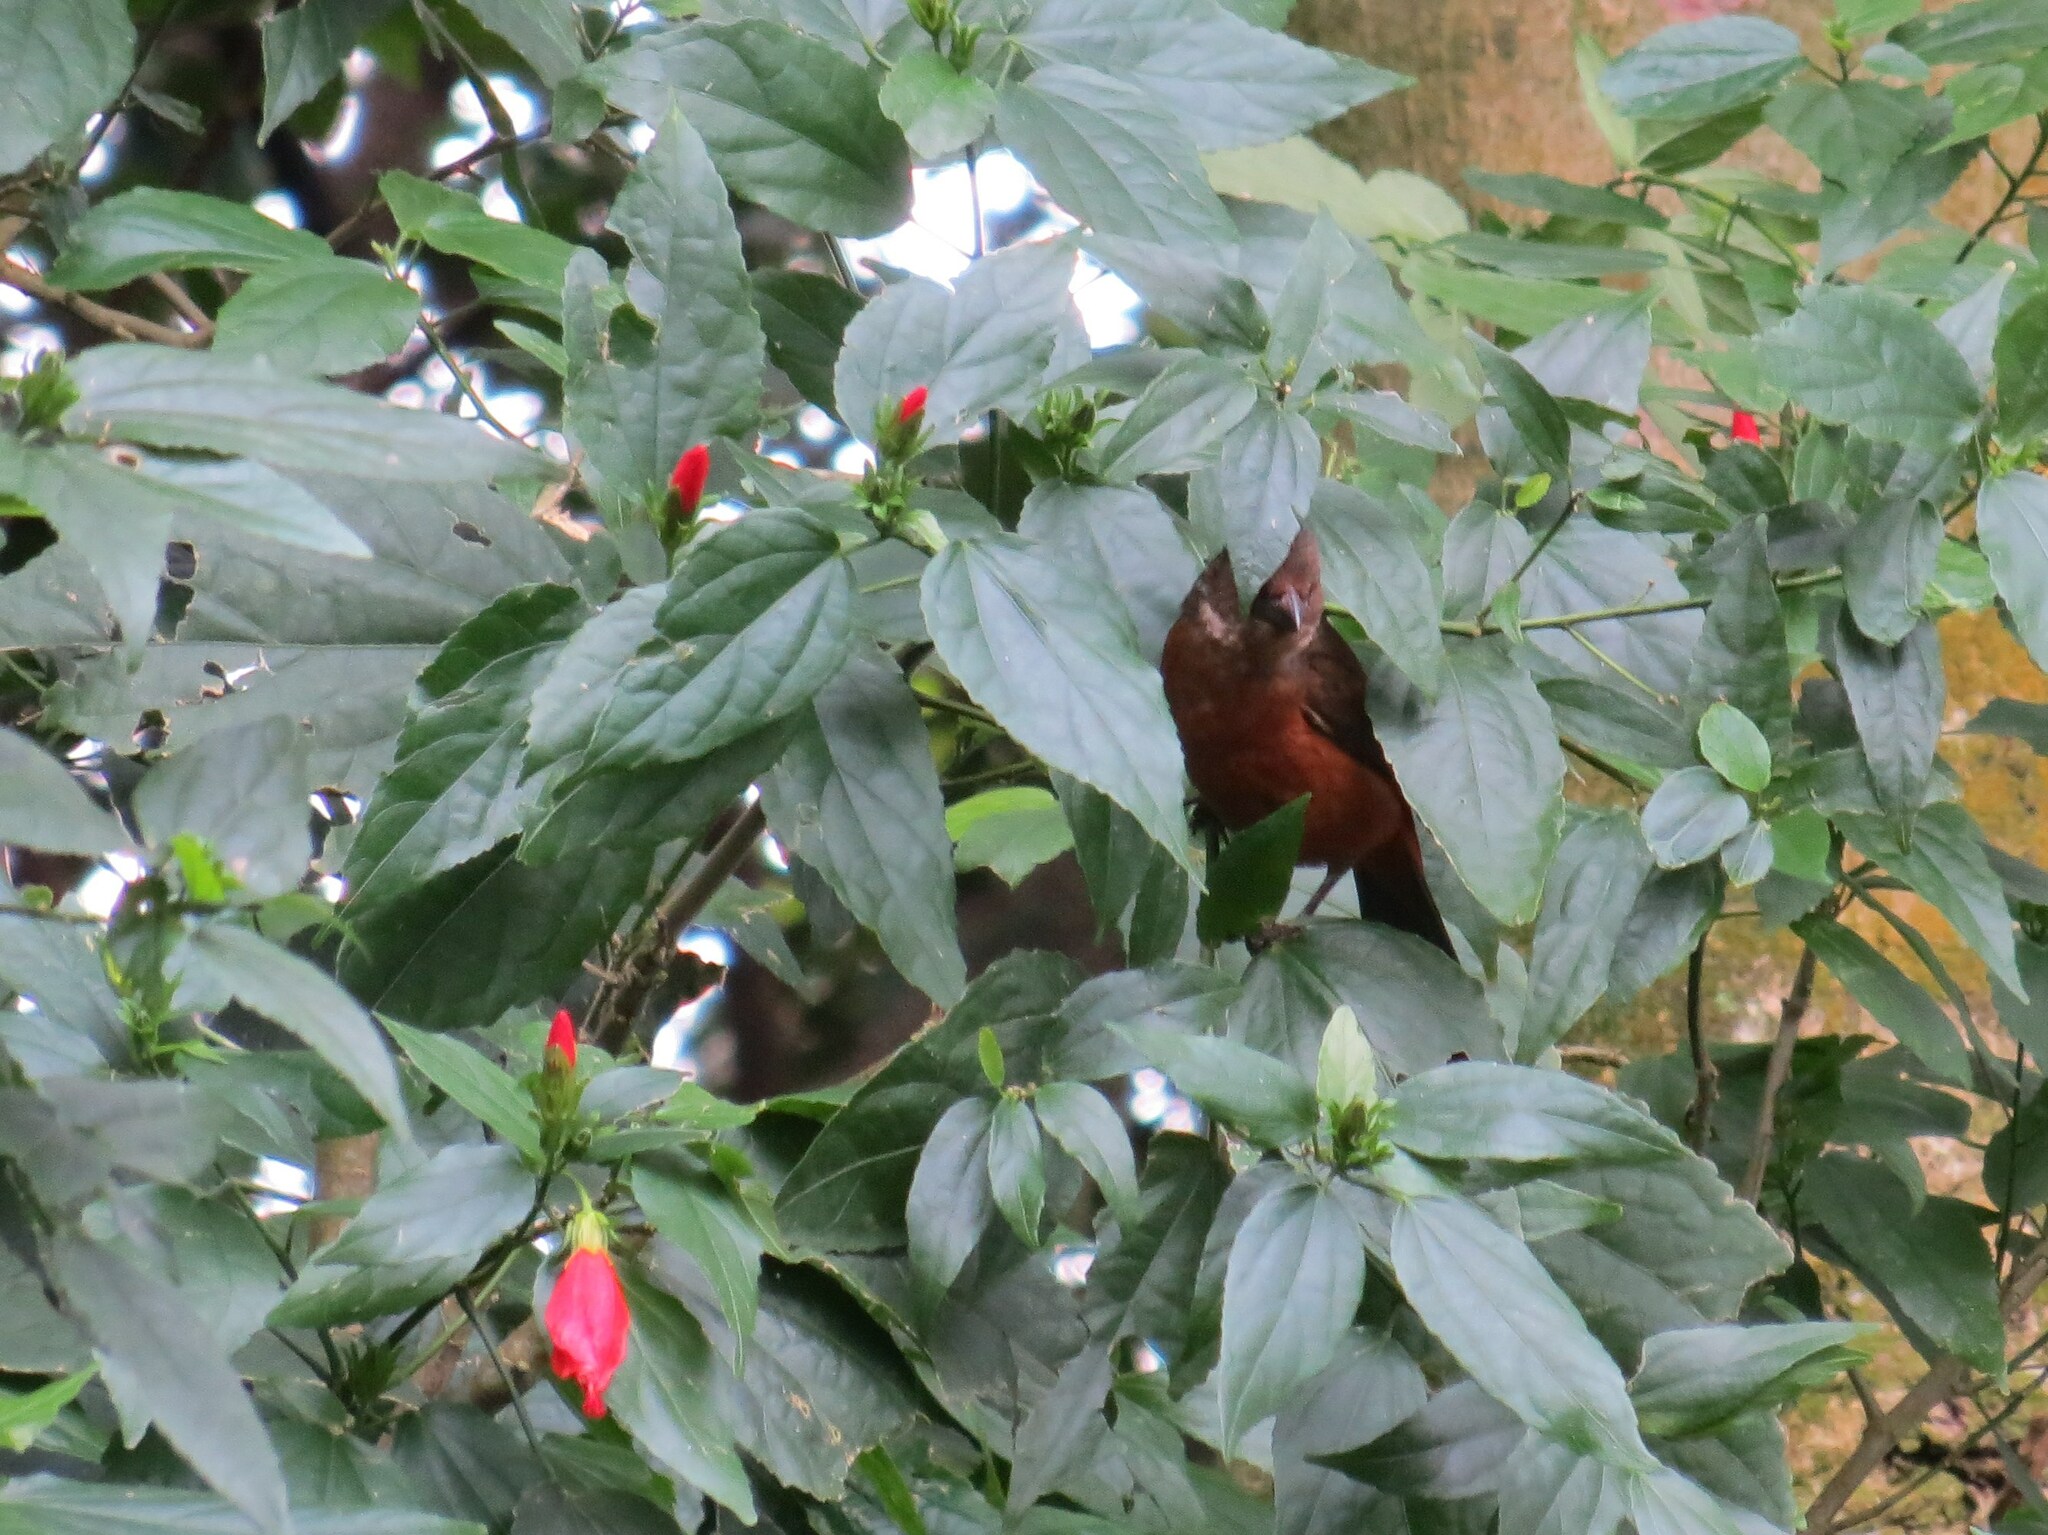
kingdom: Animalia
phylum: Chordata
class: Aves
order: Passeriformes
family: Thraupidae
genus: Ramphocelus
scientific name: Ramphocelus bresilia
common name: Brazilian tanager
